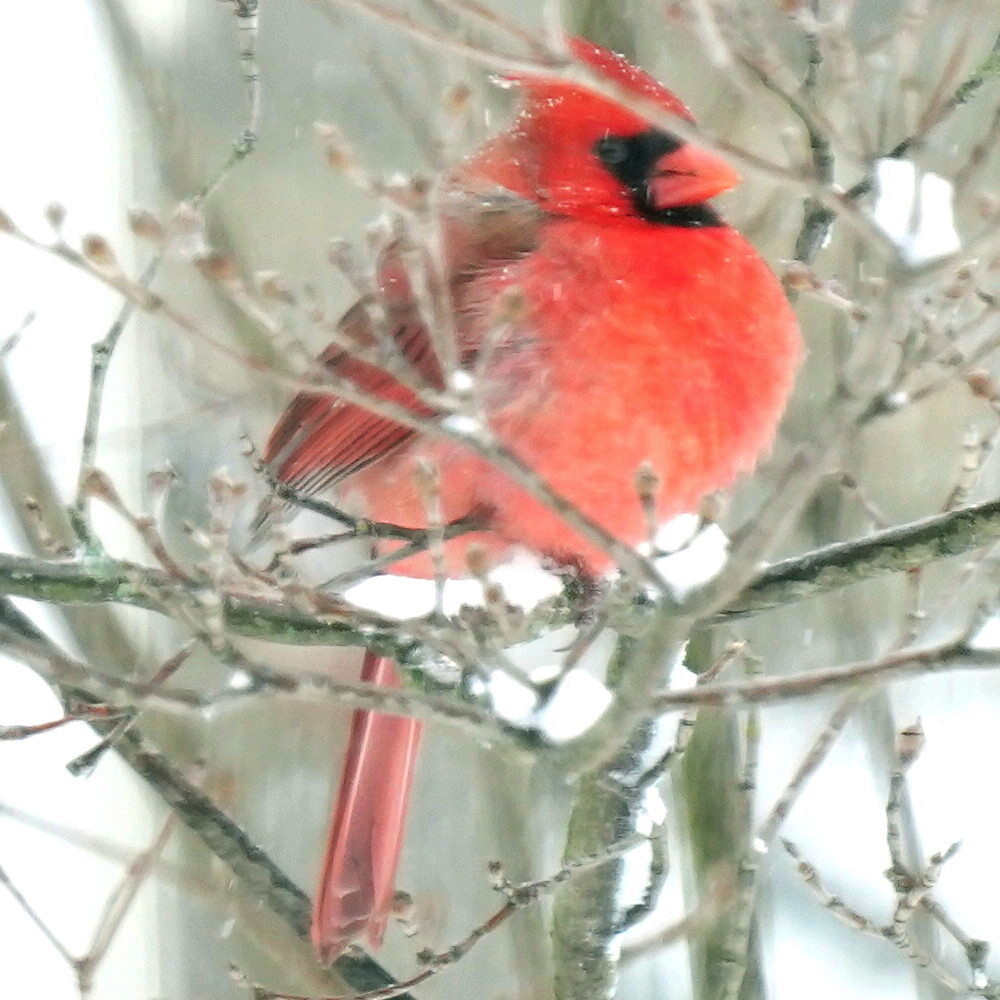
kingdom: Animalia
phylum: Chordata
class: Aves
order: Passeriformes
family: Cardinalidae
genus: Cardinalis
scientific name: Cardinalis cardinalis
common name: Northern cardinal
